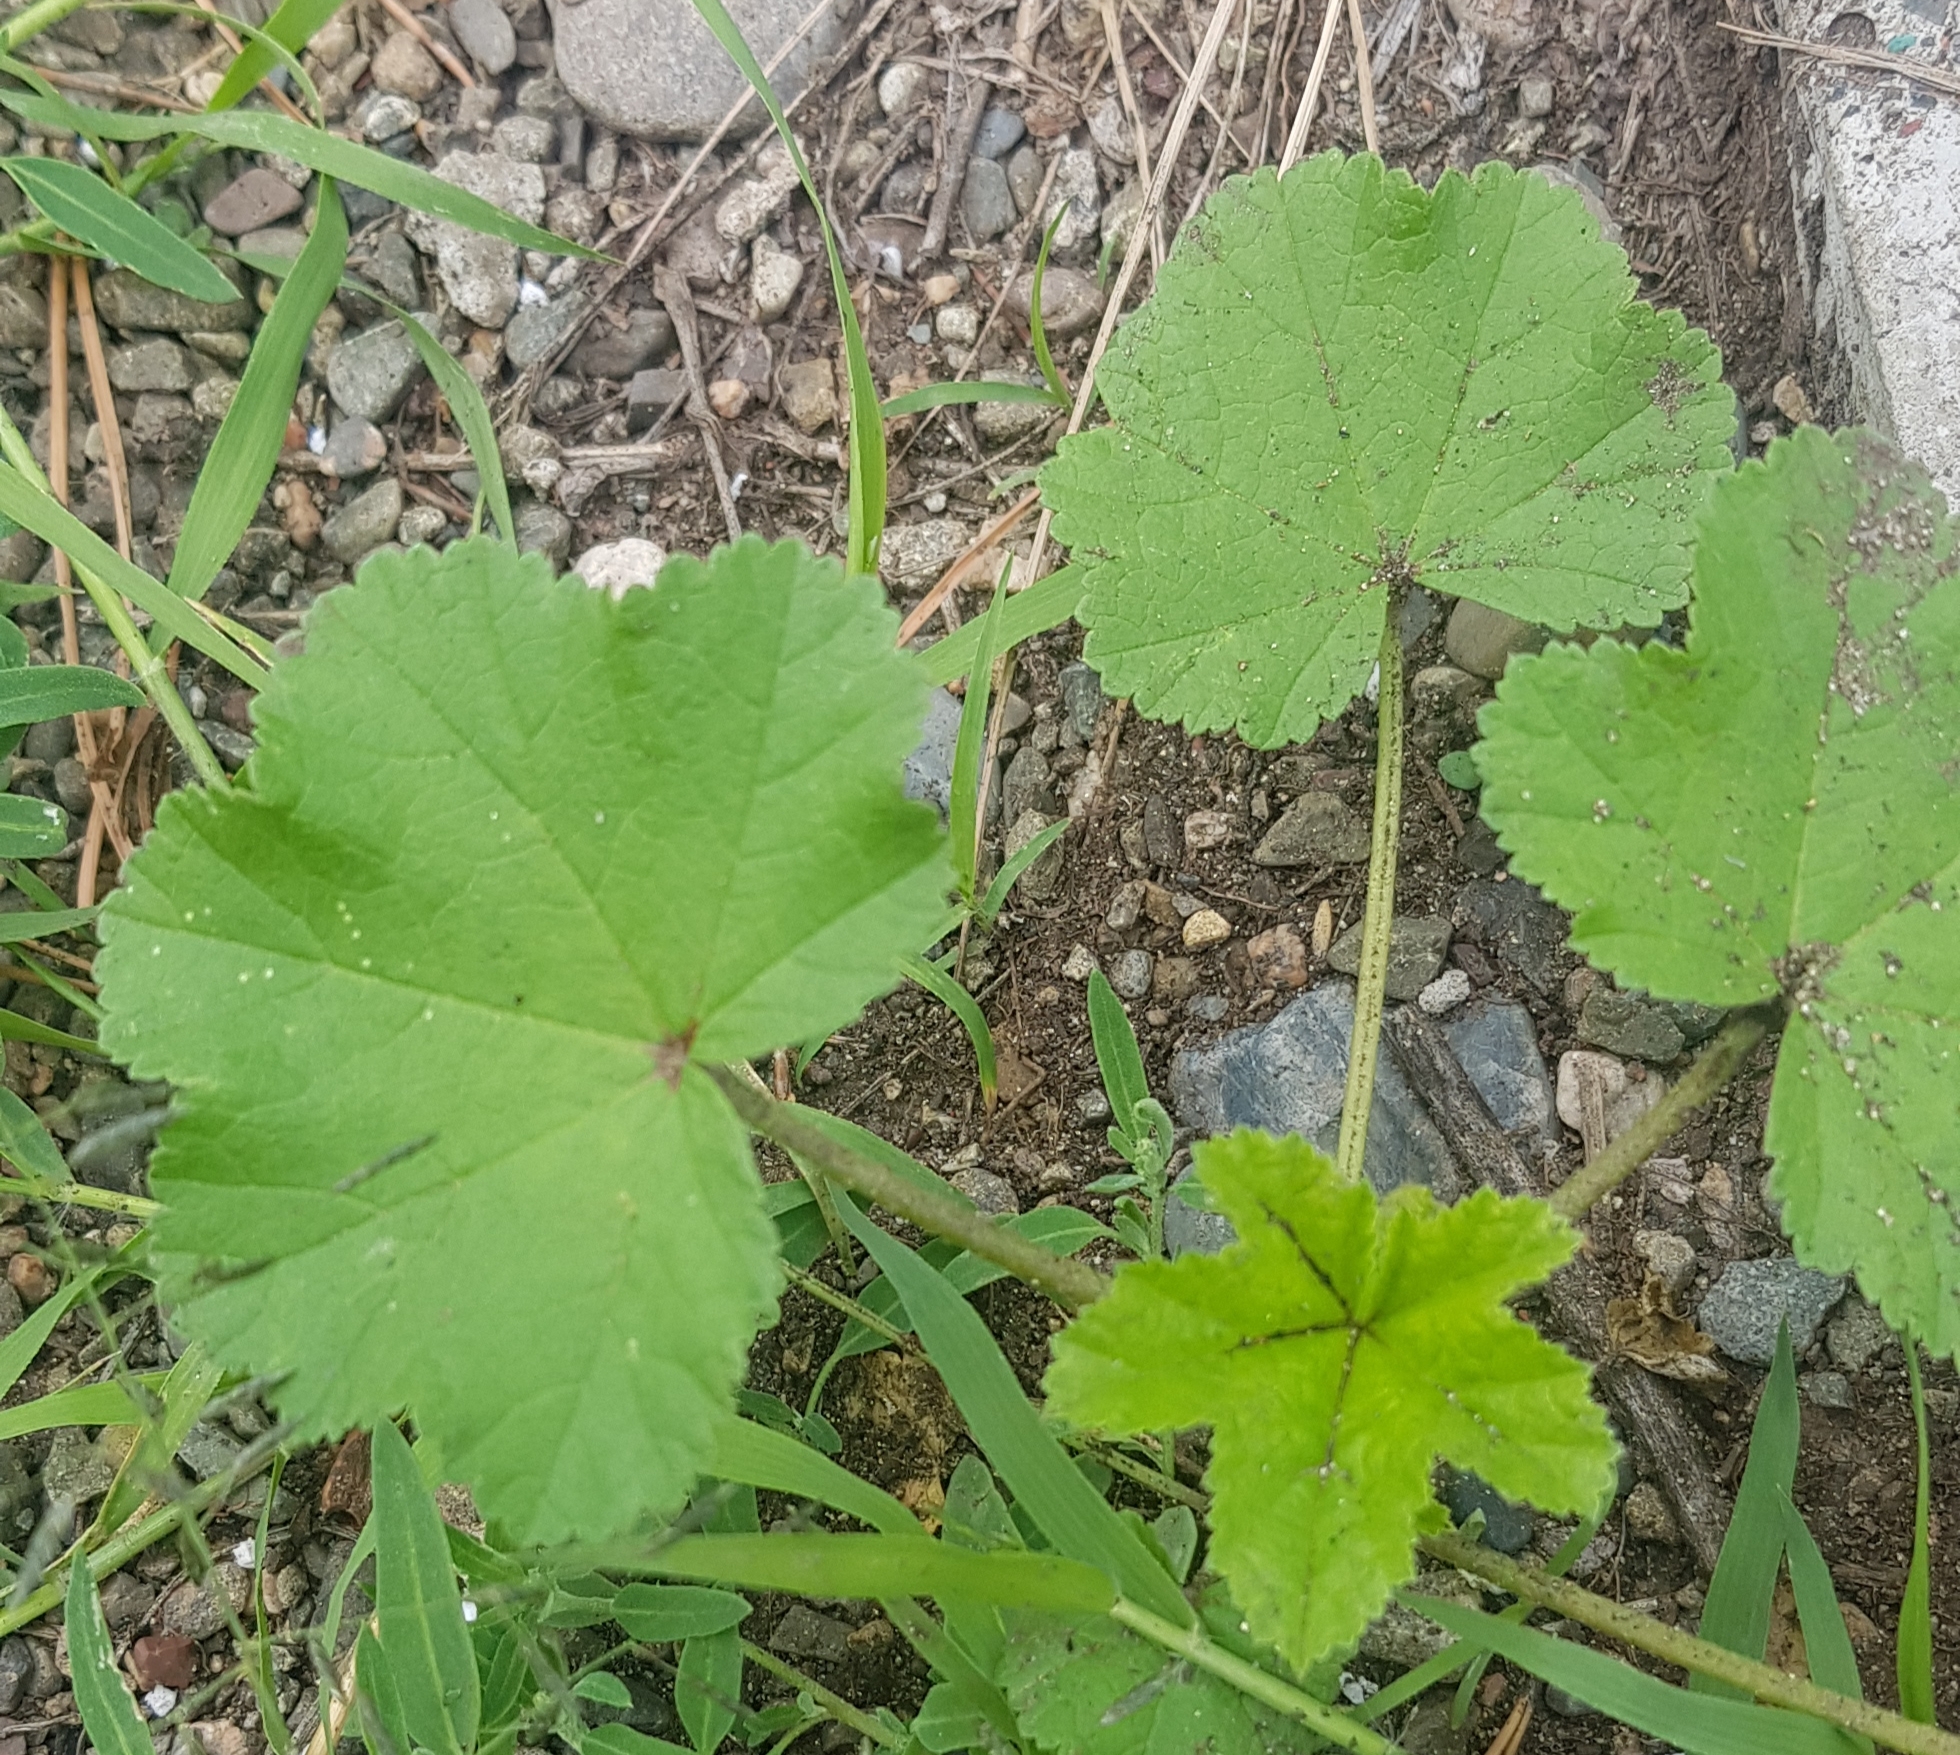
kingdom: Plantae
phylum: Tracheophyta
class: Magnoliopsida
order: Malvales
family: Malvaceae
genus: Malva
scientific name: Malva verticillata
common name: Chinese mallow
